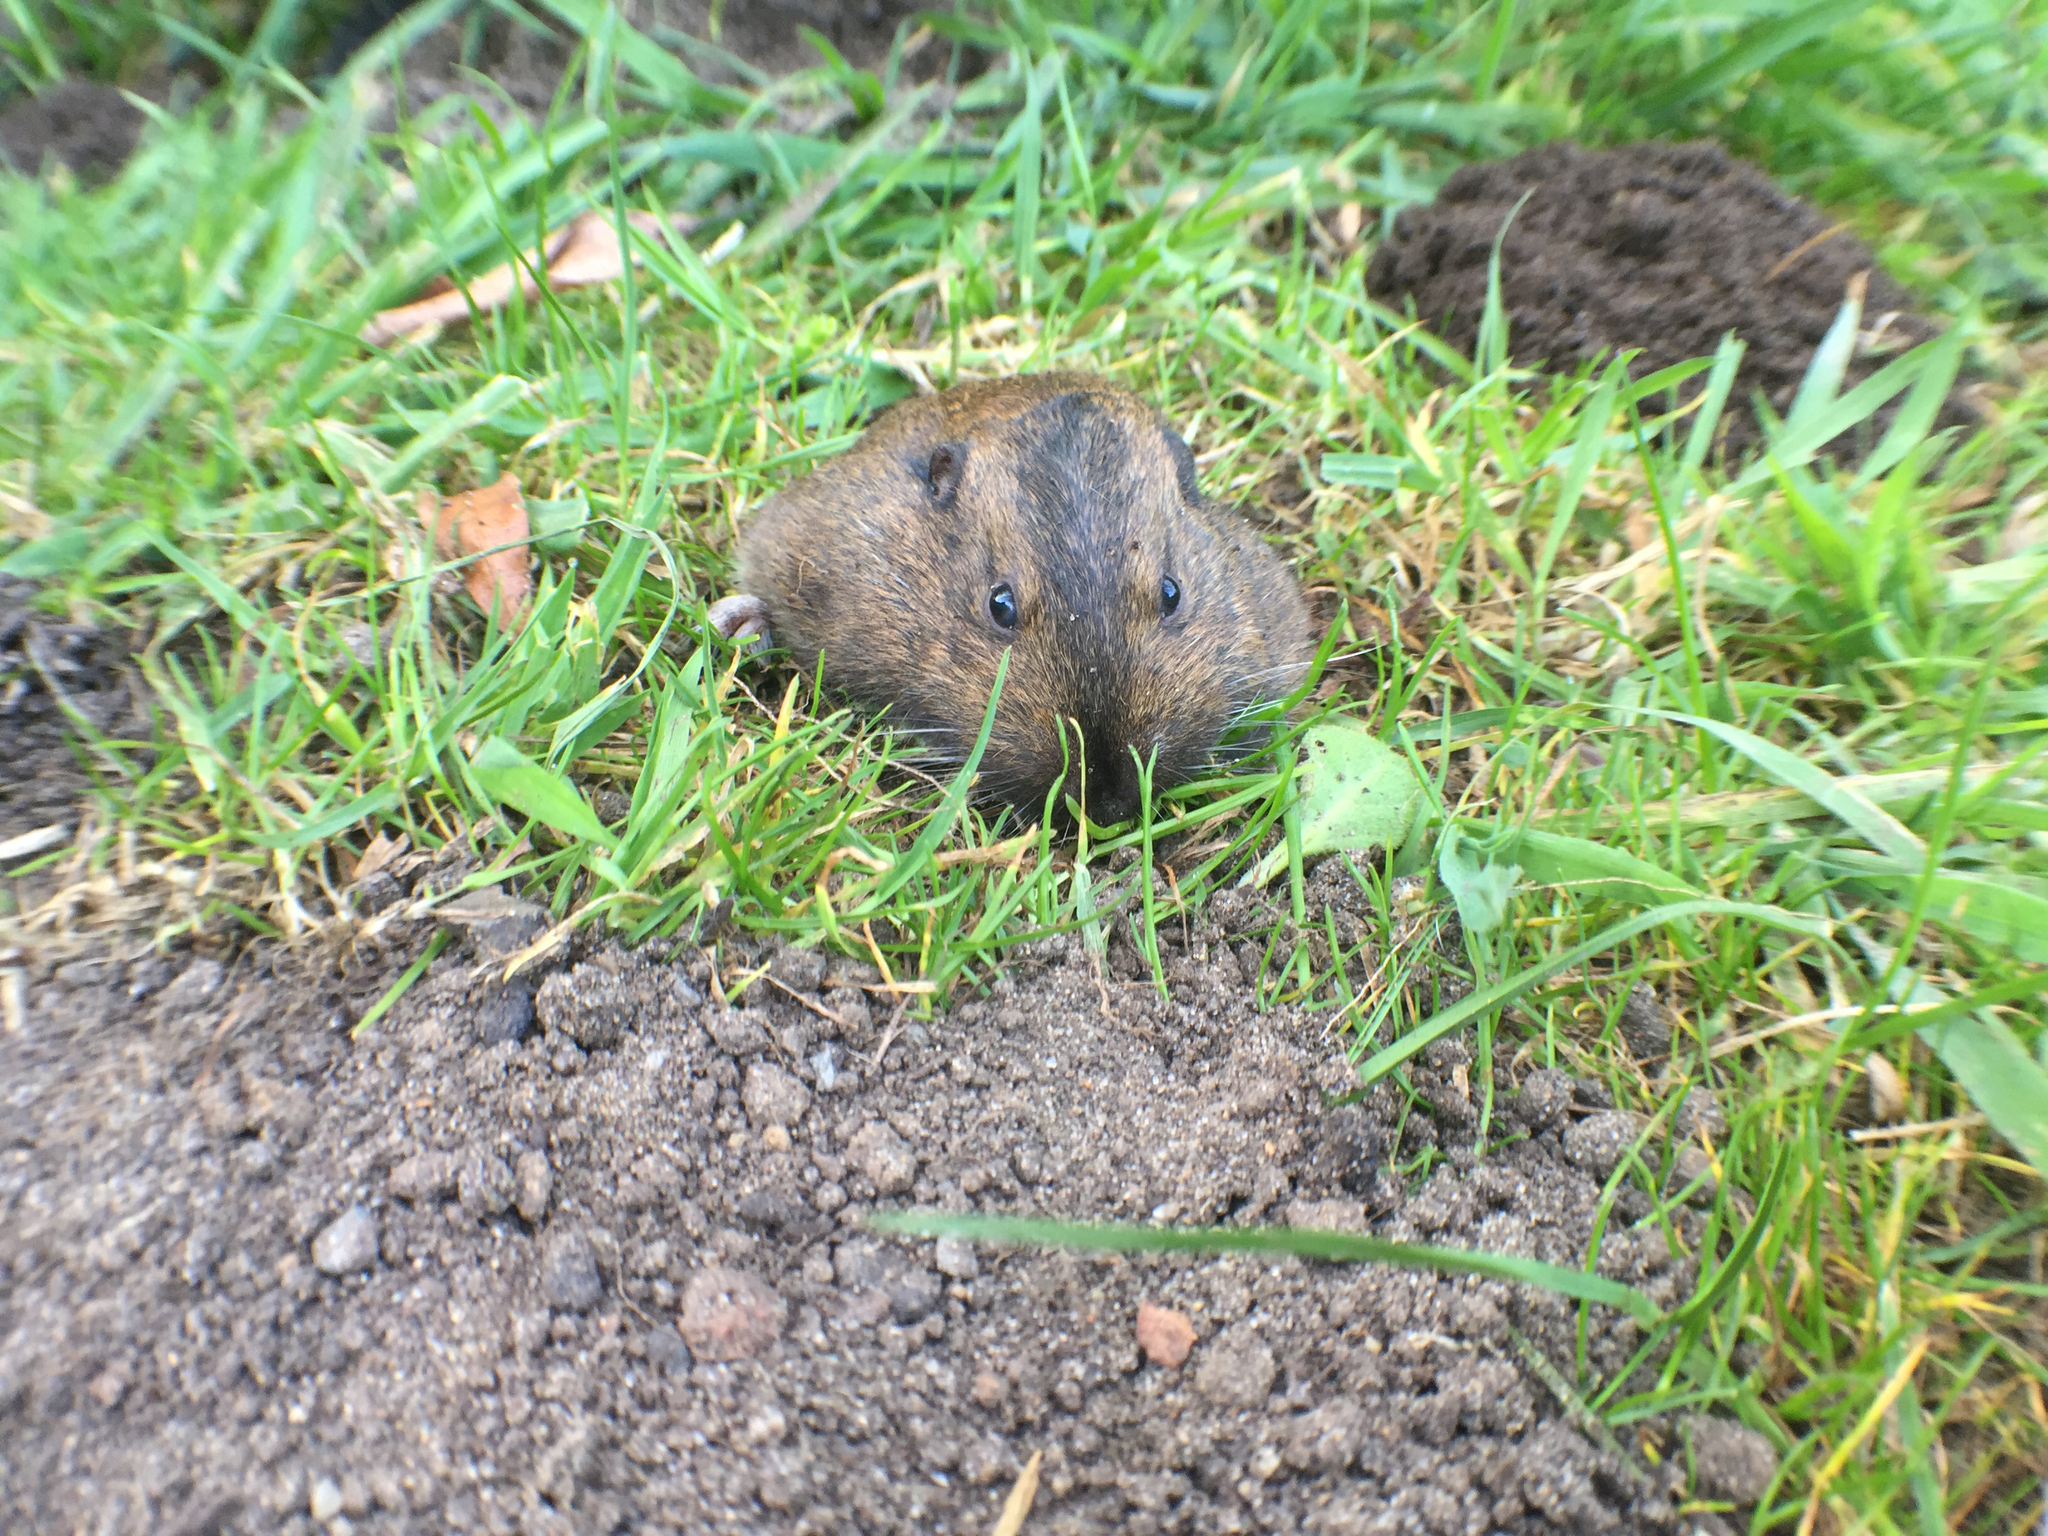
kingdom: Animalia
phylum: Chordata
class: Mammalia
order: Rodentia
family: Geomyidae
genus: Thomomys
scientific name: Thomomys bottae
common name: Botta's pocket gopher
